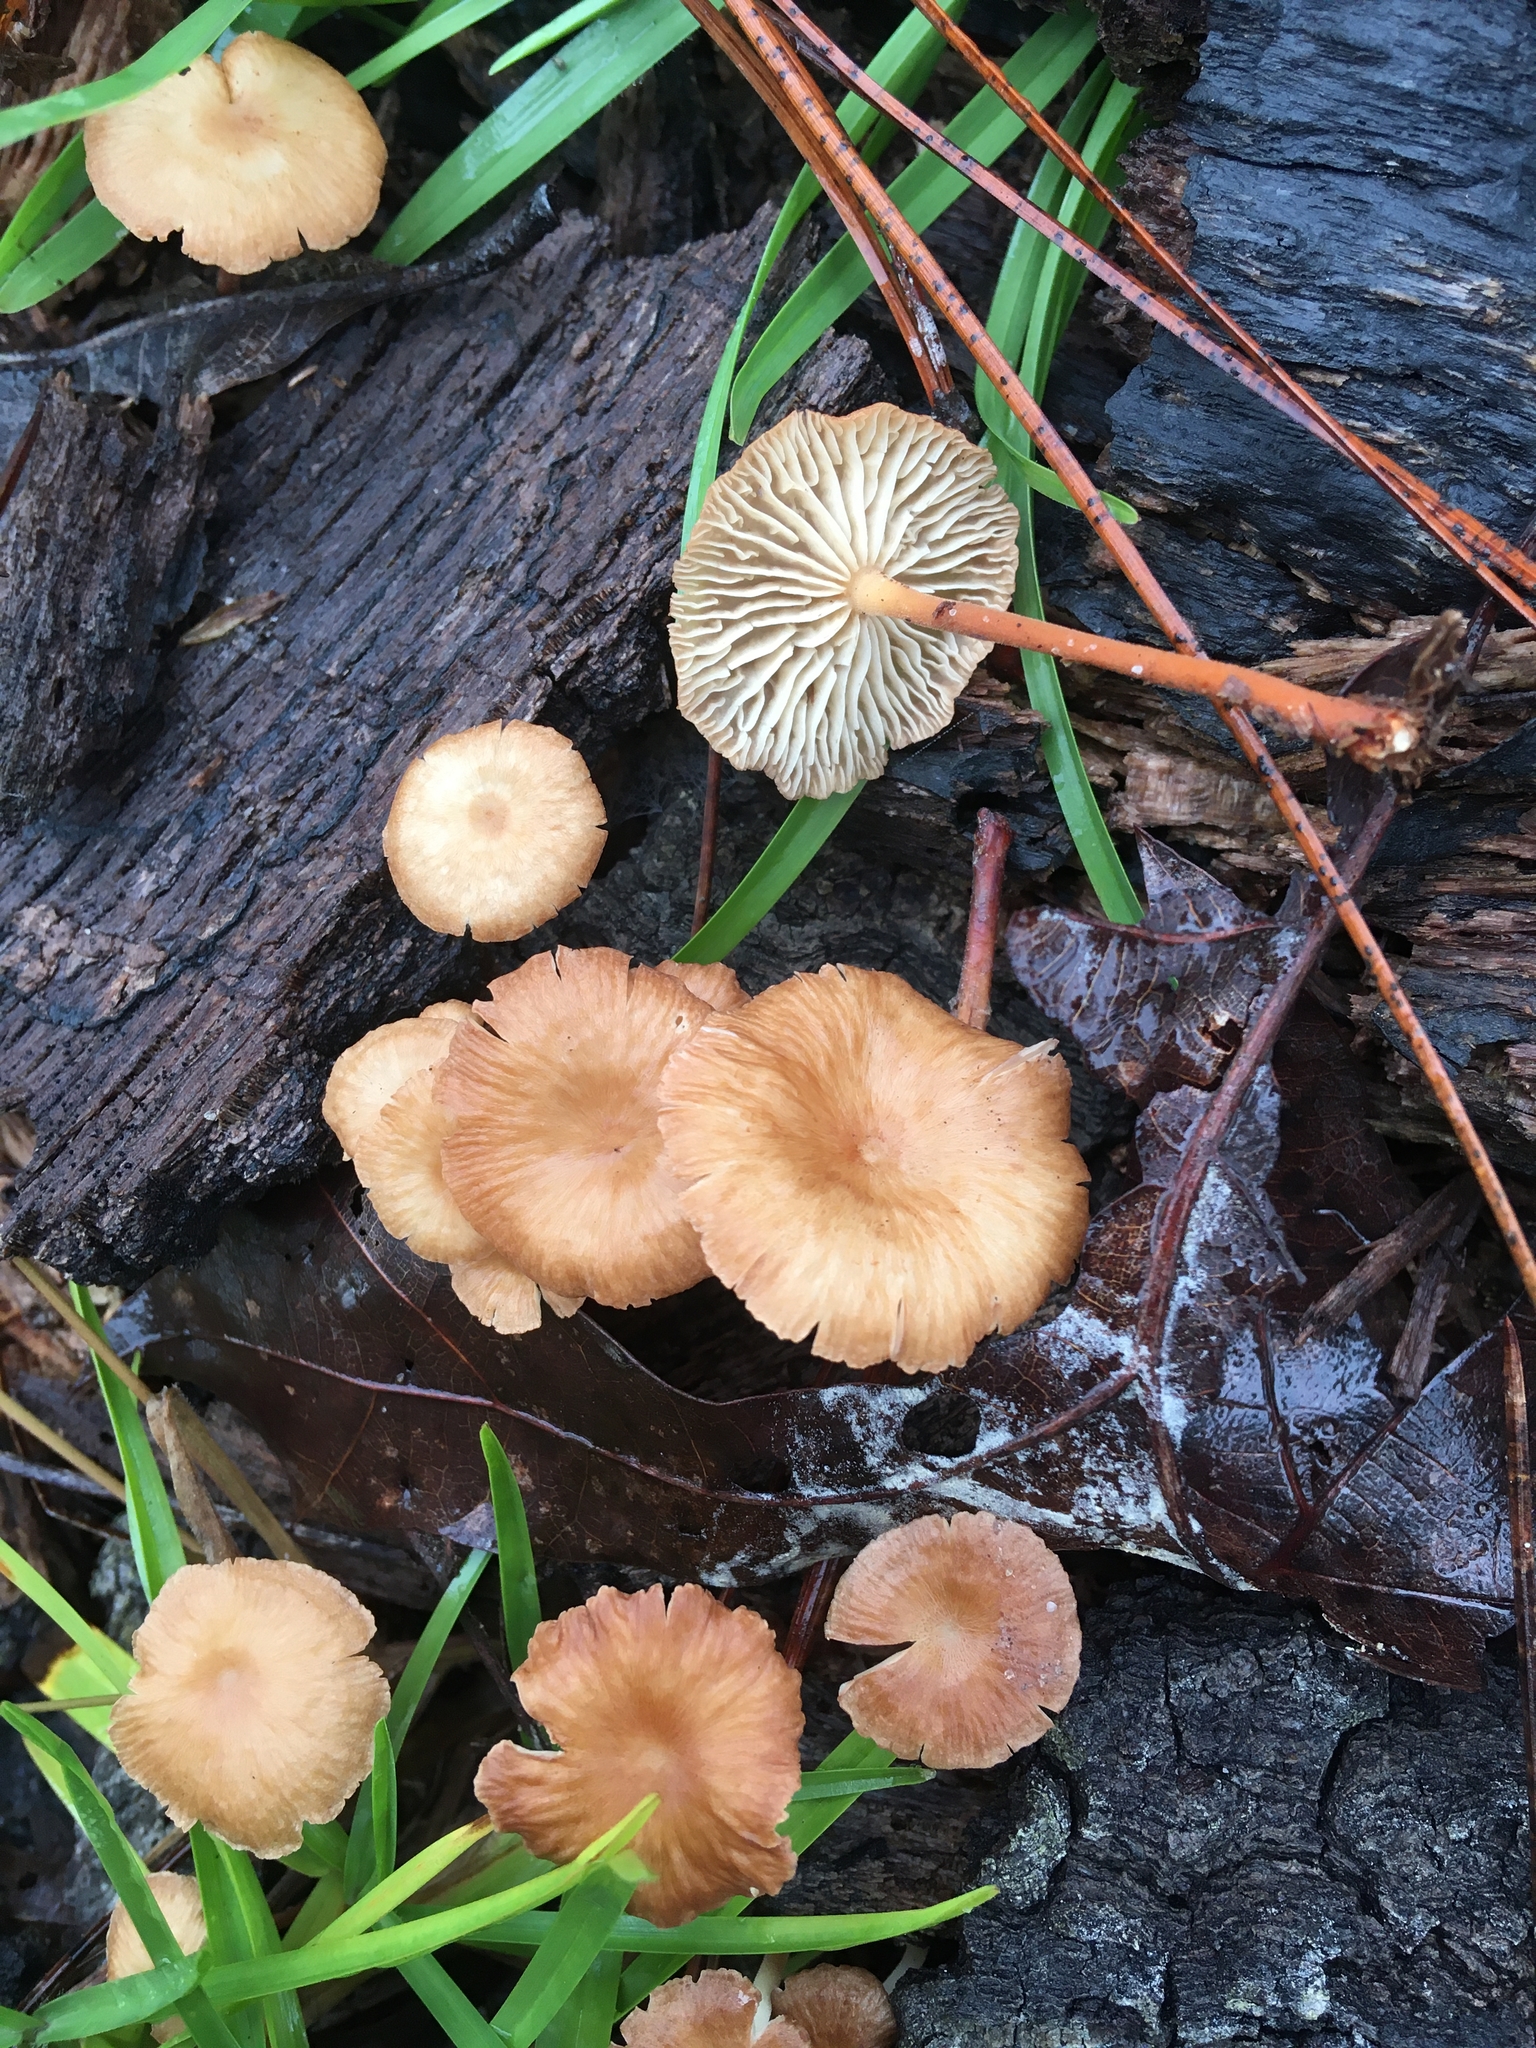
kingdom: Fungi
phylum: Basidiomycota
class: Agaricomycetes
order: Agaricales
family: Omphalotaceae
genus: Collybiopsis
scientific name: Collybiopsis subnuda
